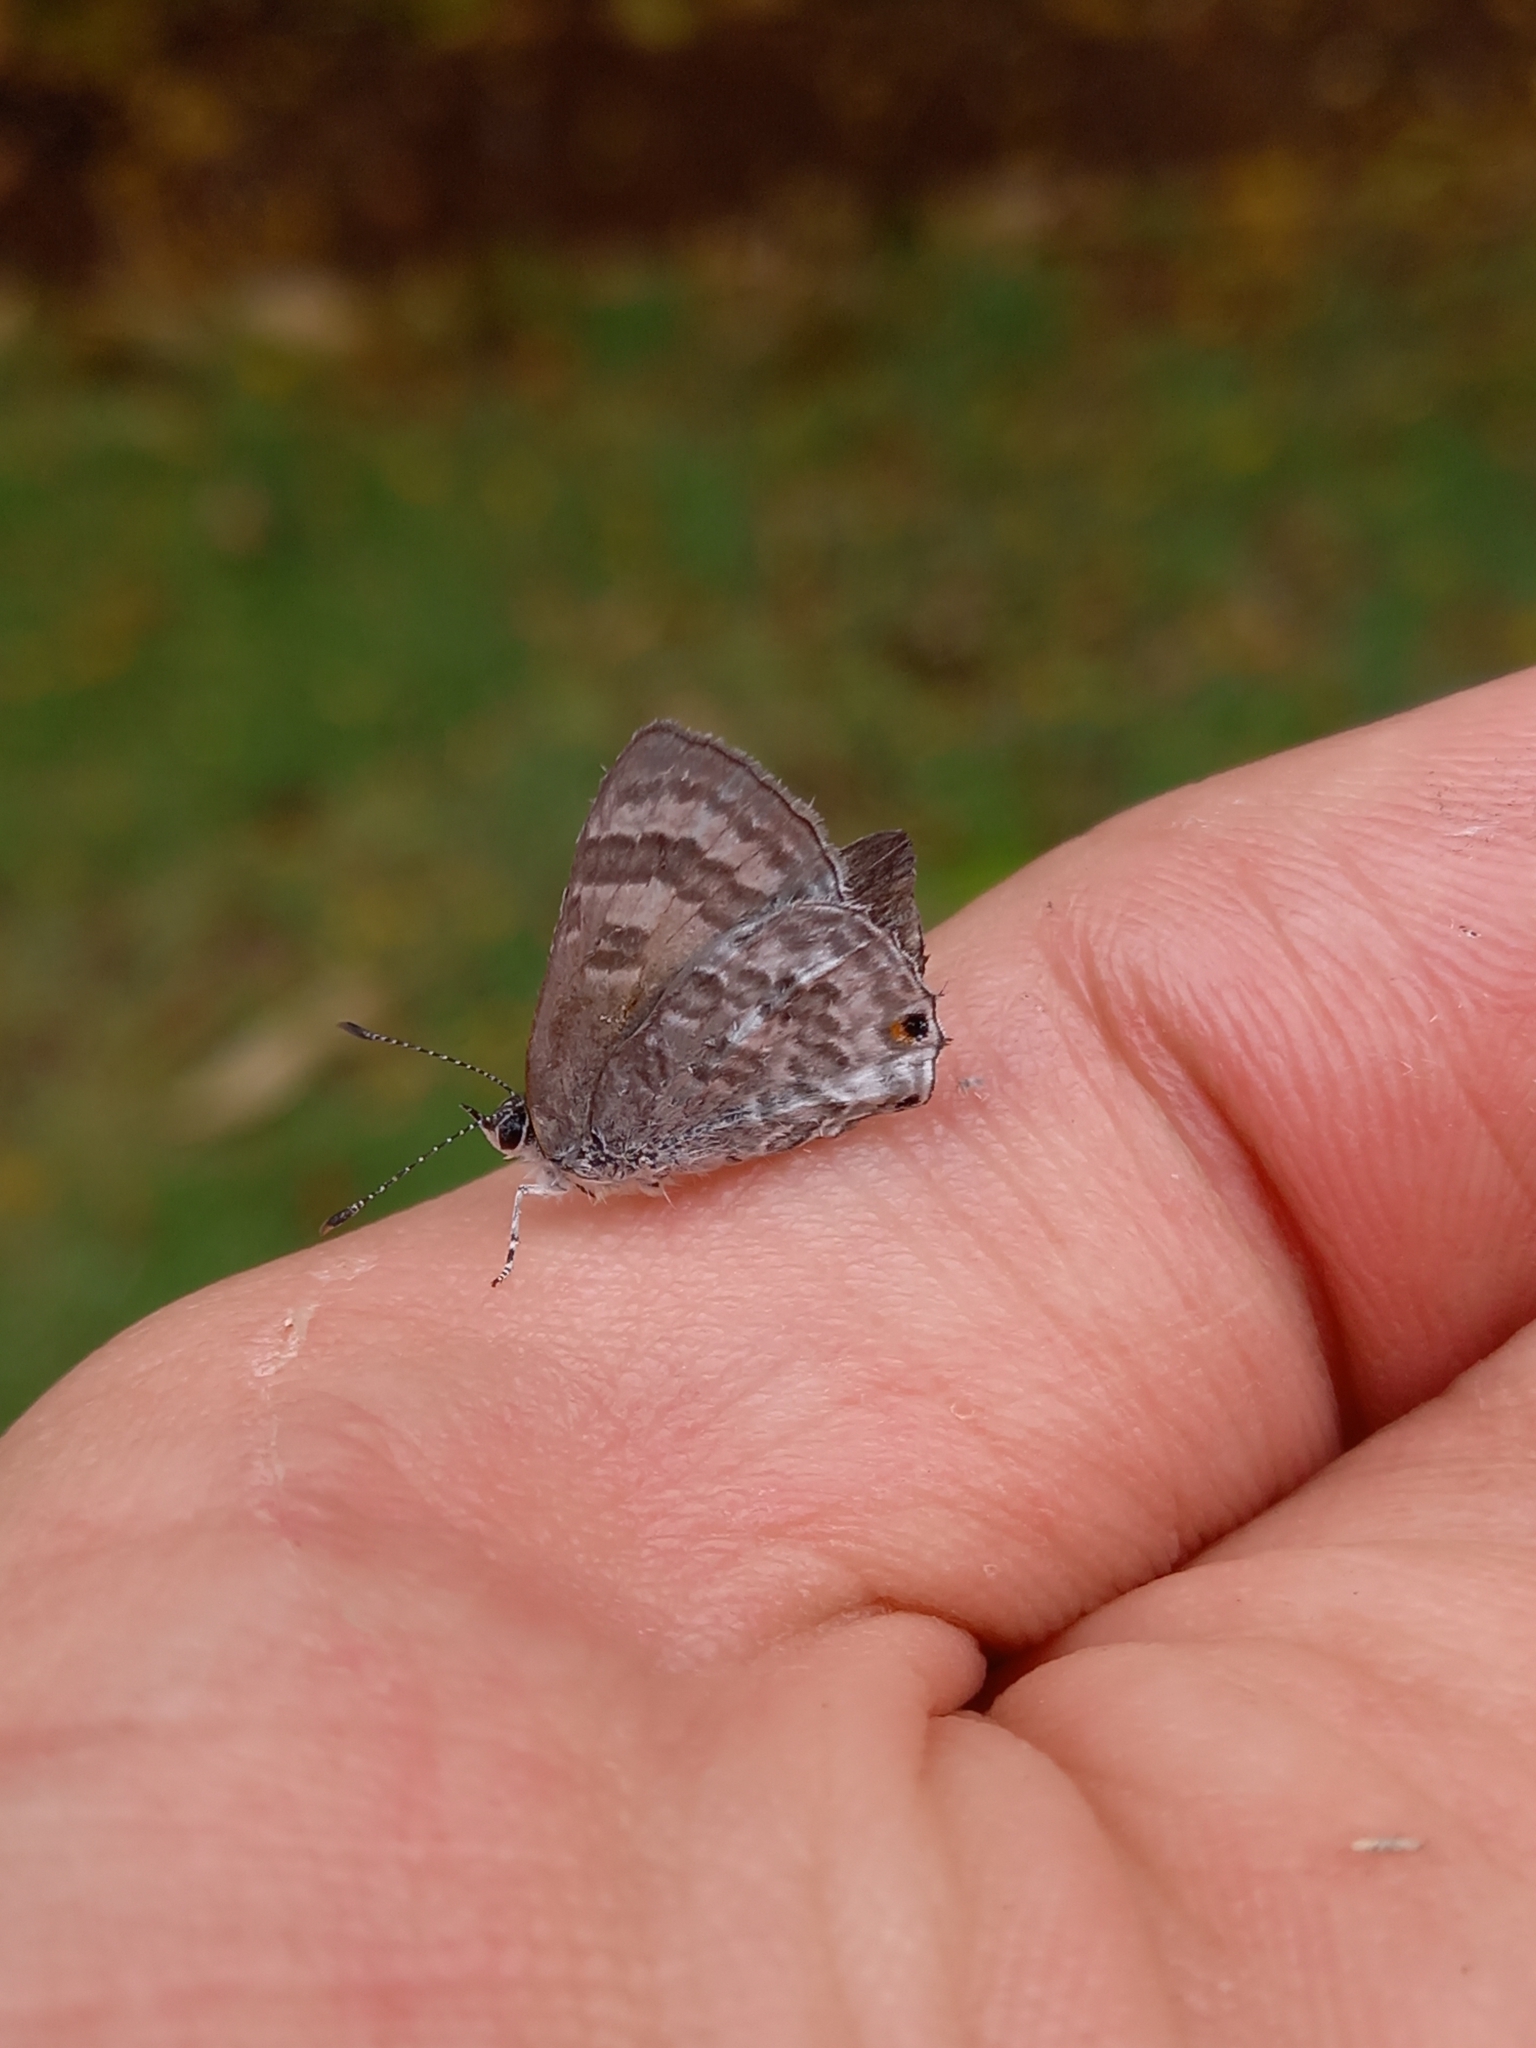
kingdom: Animalia
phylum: Arthropoda
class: Insecta
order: Lepidoptera
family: Lycaenidae
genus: Anthene
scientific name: Anthene definita
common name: Common ciliate blue
